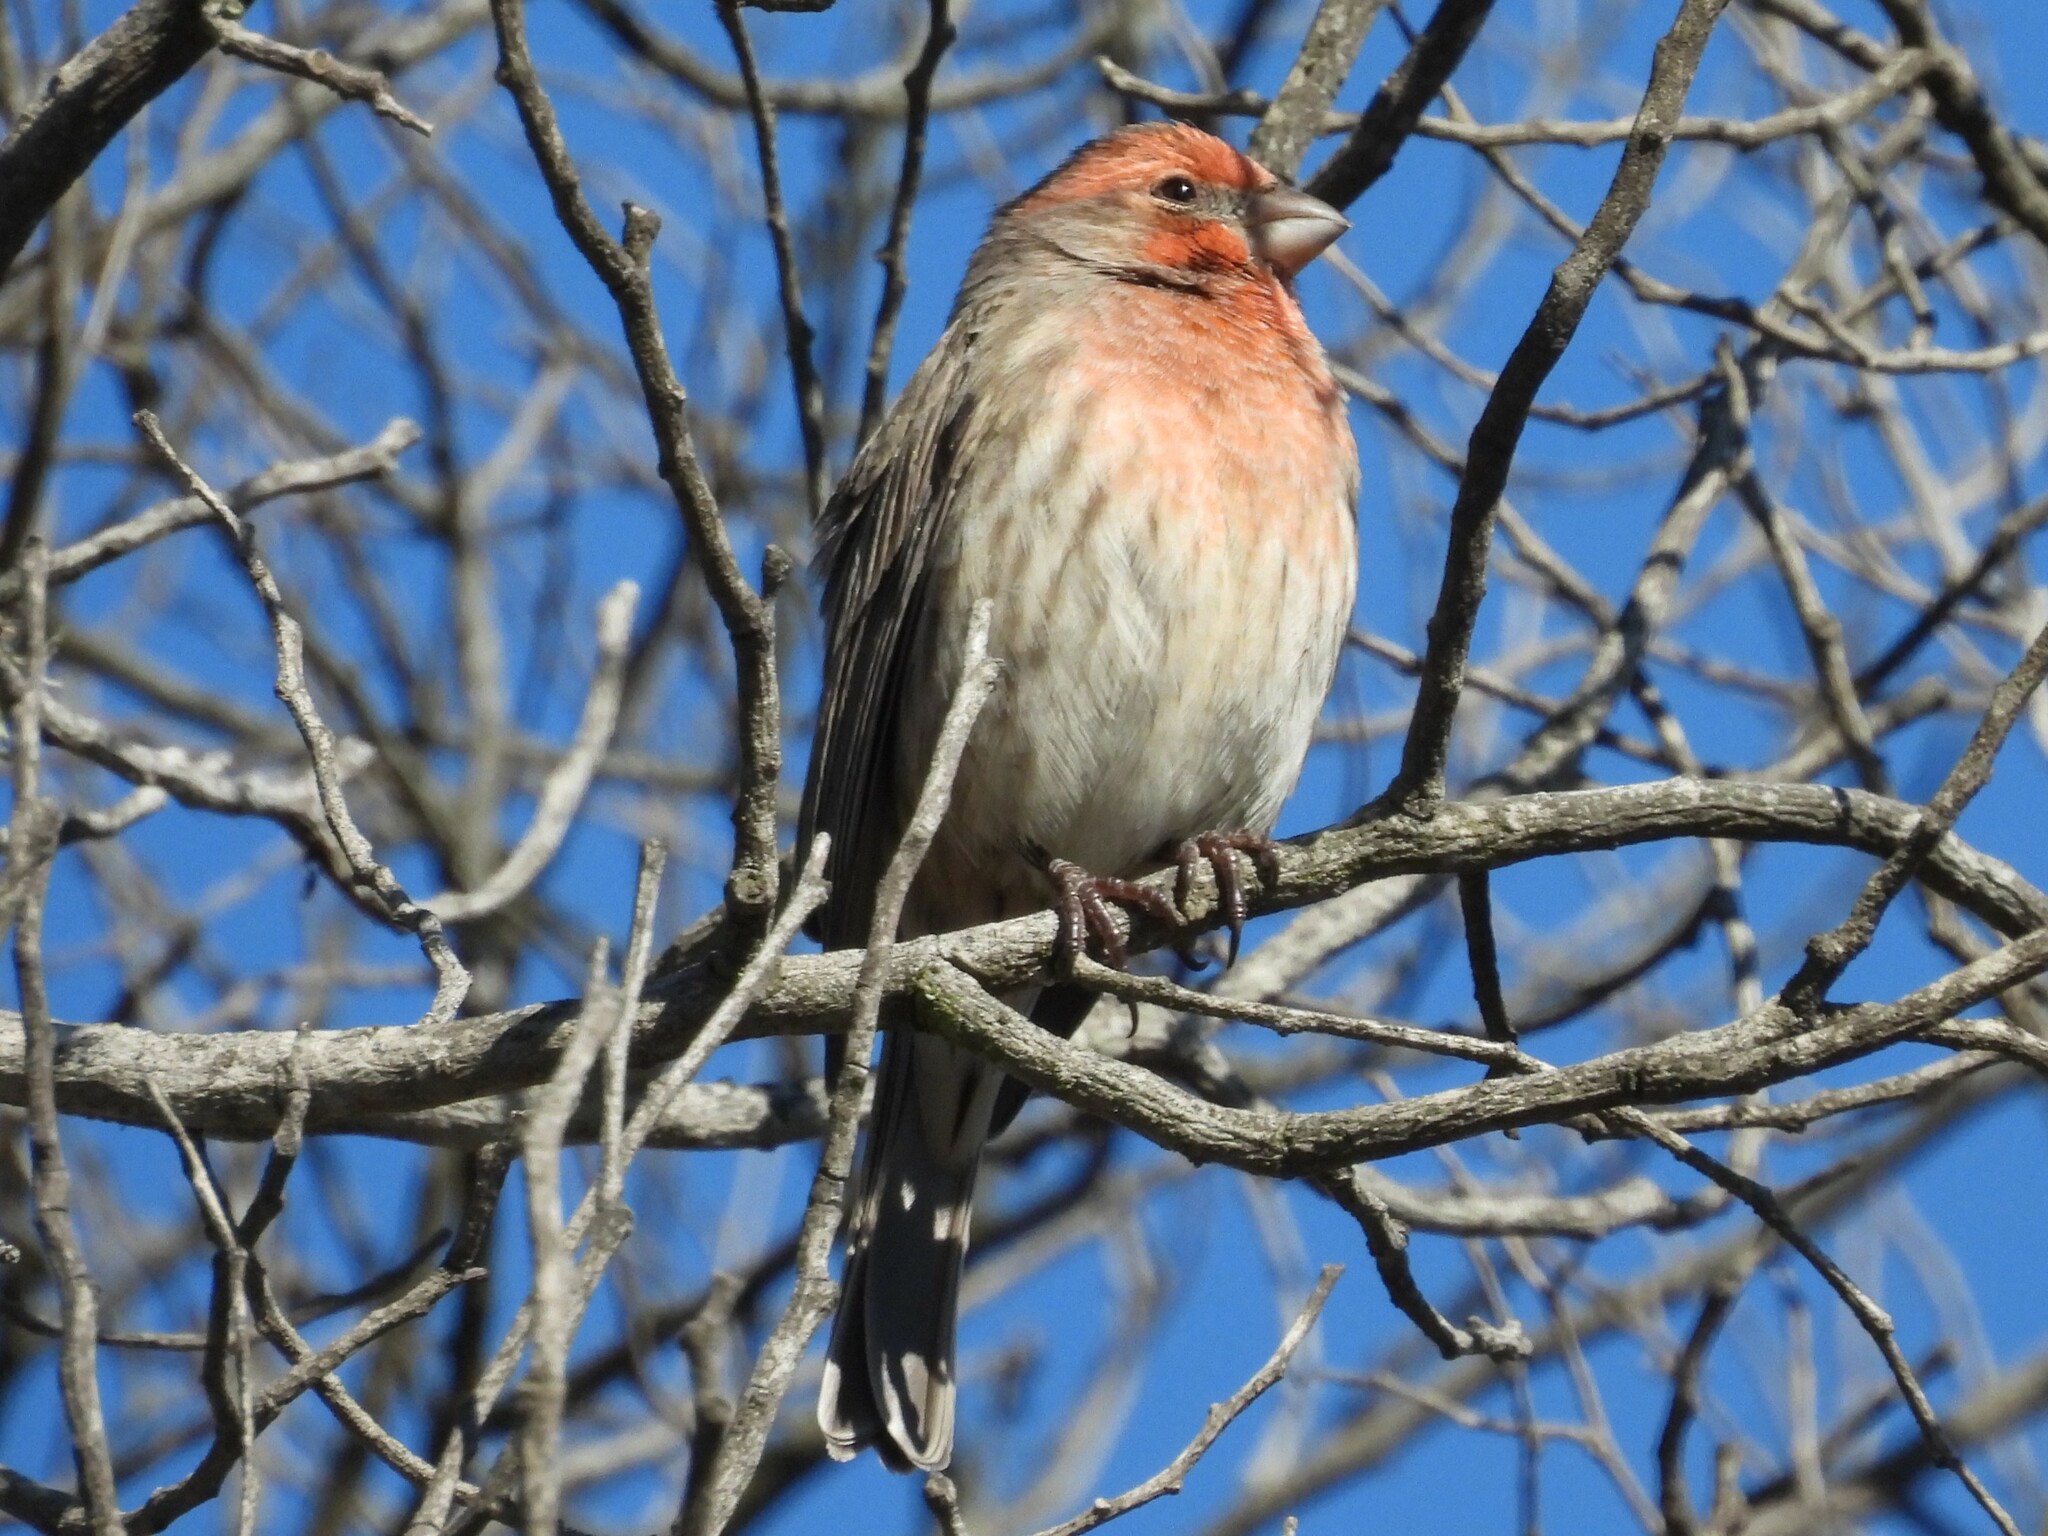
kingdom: Animalia
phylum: Chordata
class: Aves
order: Passeriformes
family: Fringillidae
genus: Haemorhous
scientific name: Haemorhous mexicanus
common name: House finch
